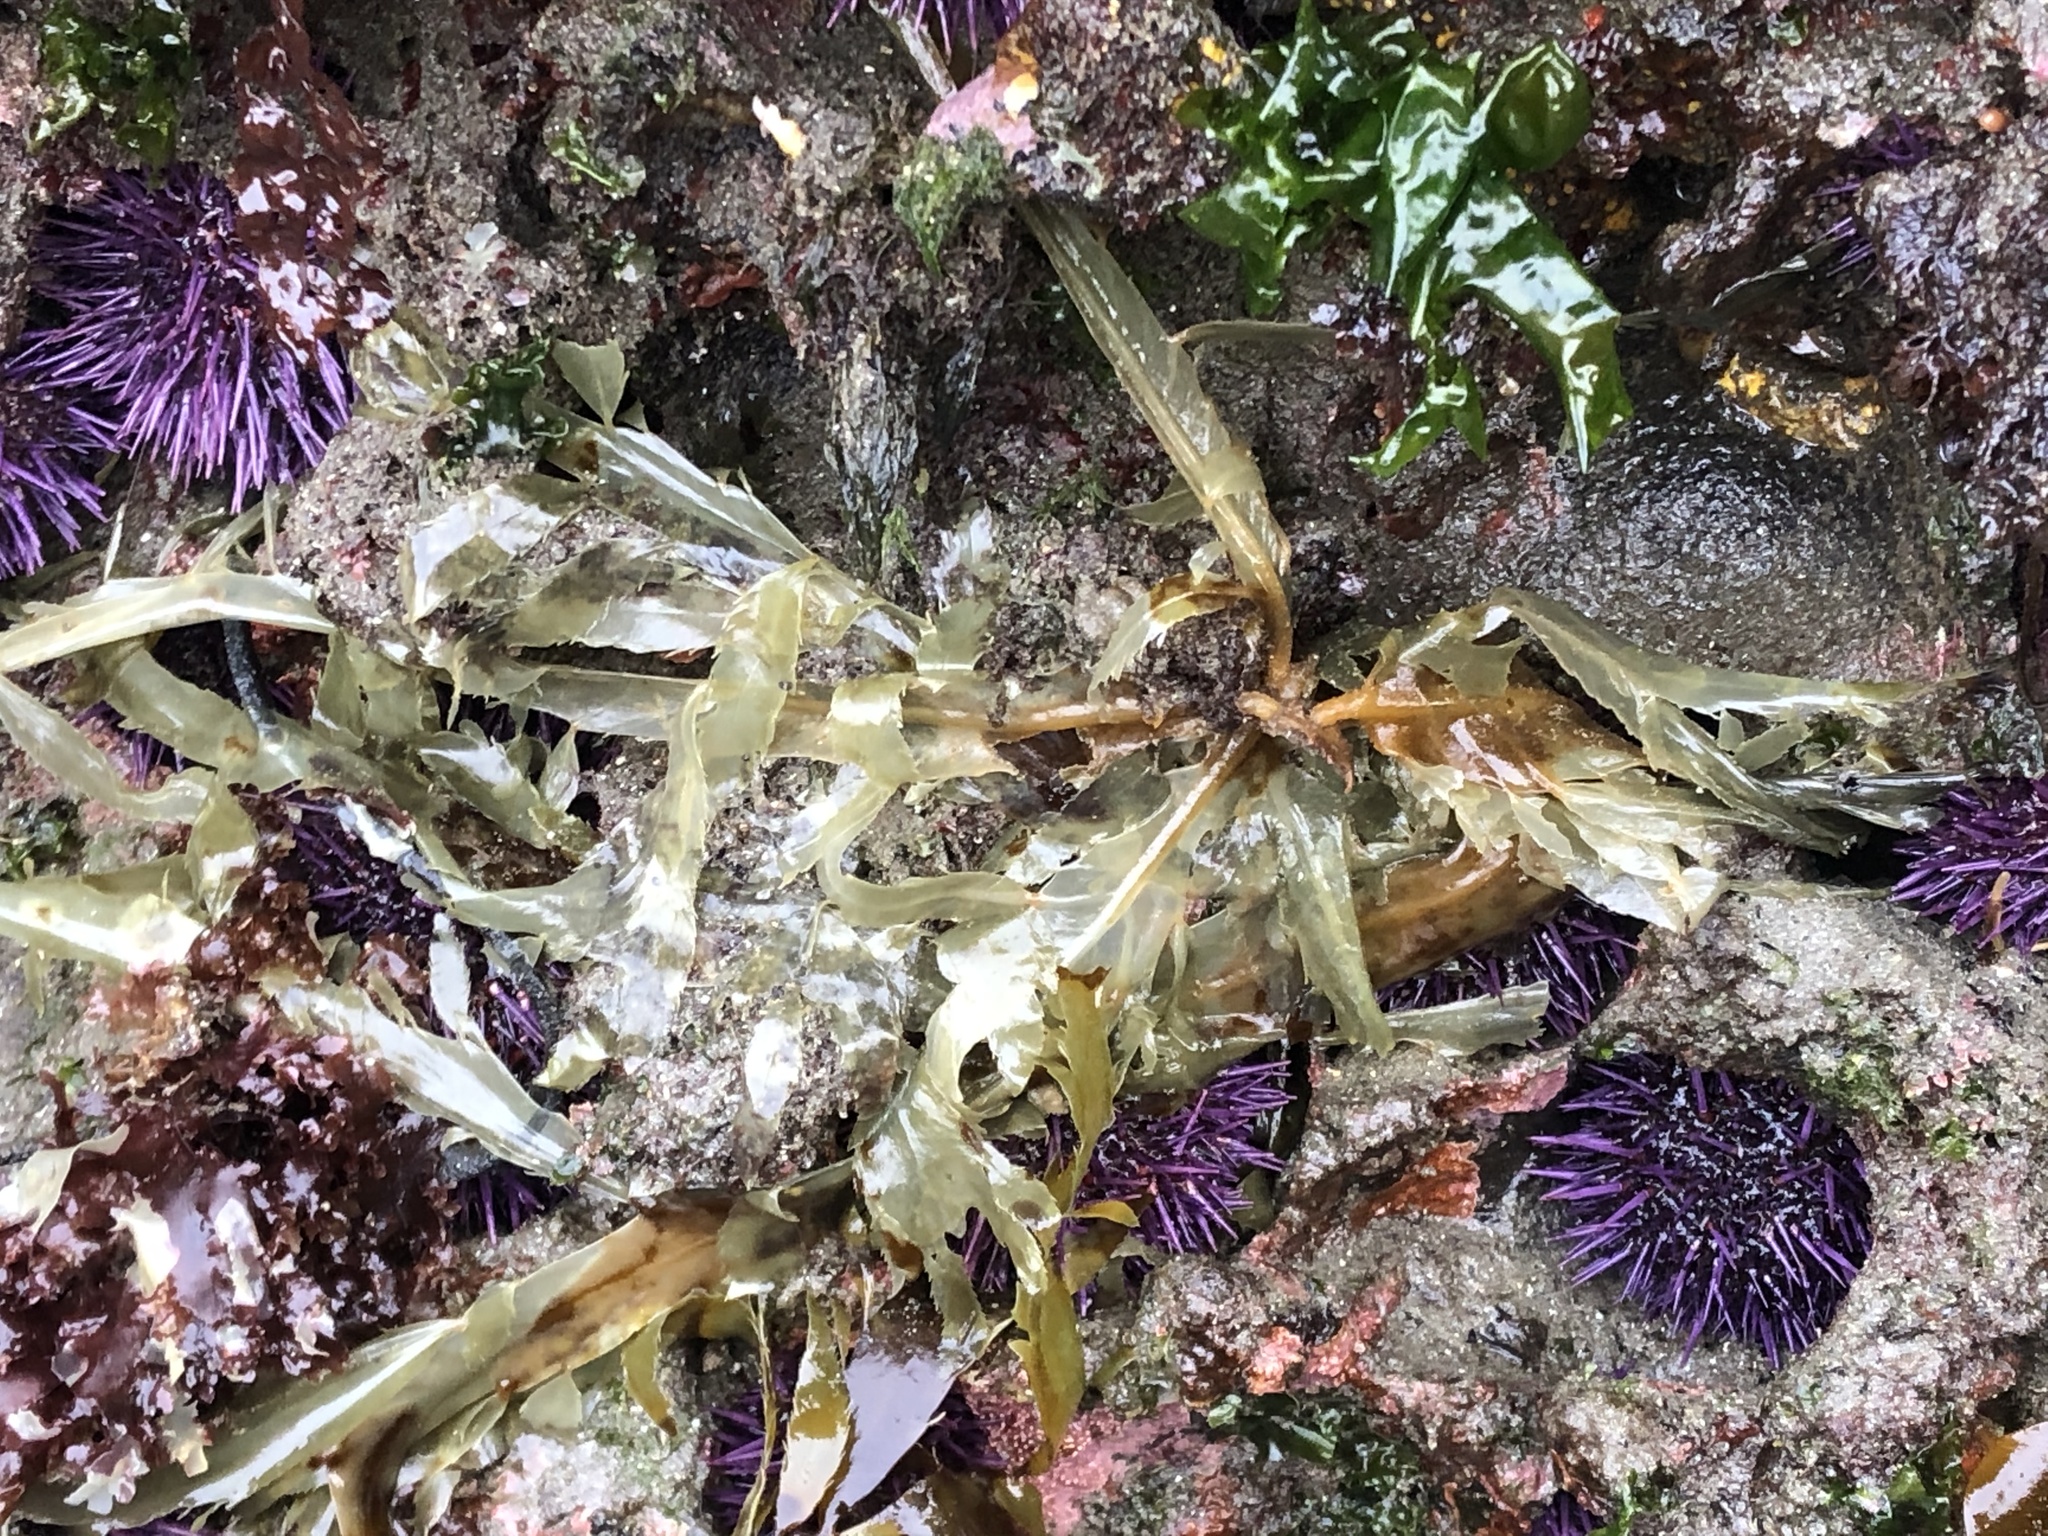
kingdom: Chromista
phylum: Ochrophyta
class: Phaeophyceae
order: Desmarestiales
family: Desmarestiaceae
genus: Desmarestia
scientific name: Desmarestia ligulata
